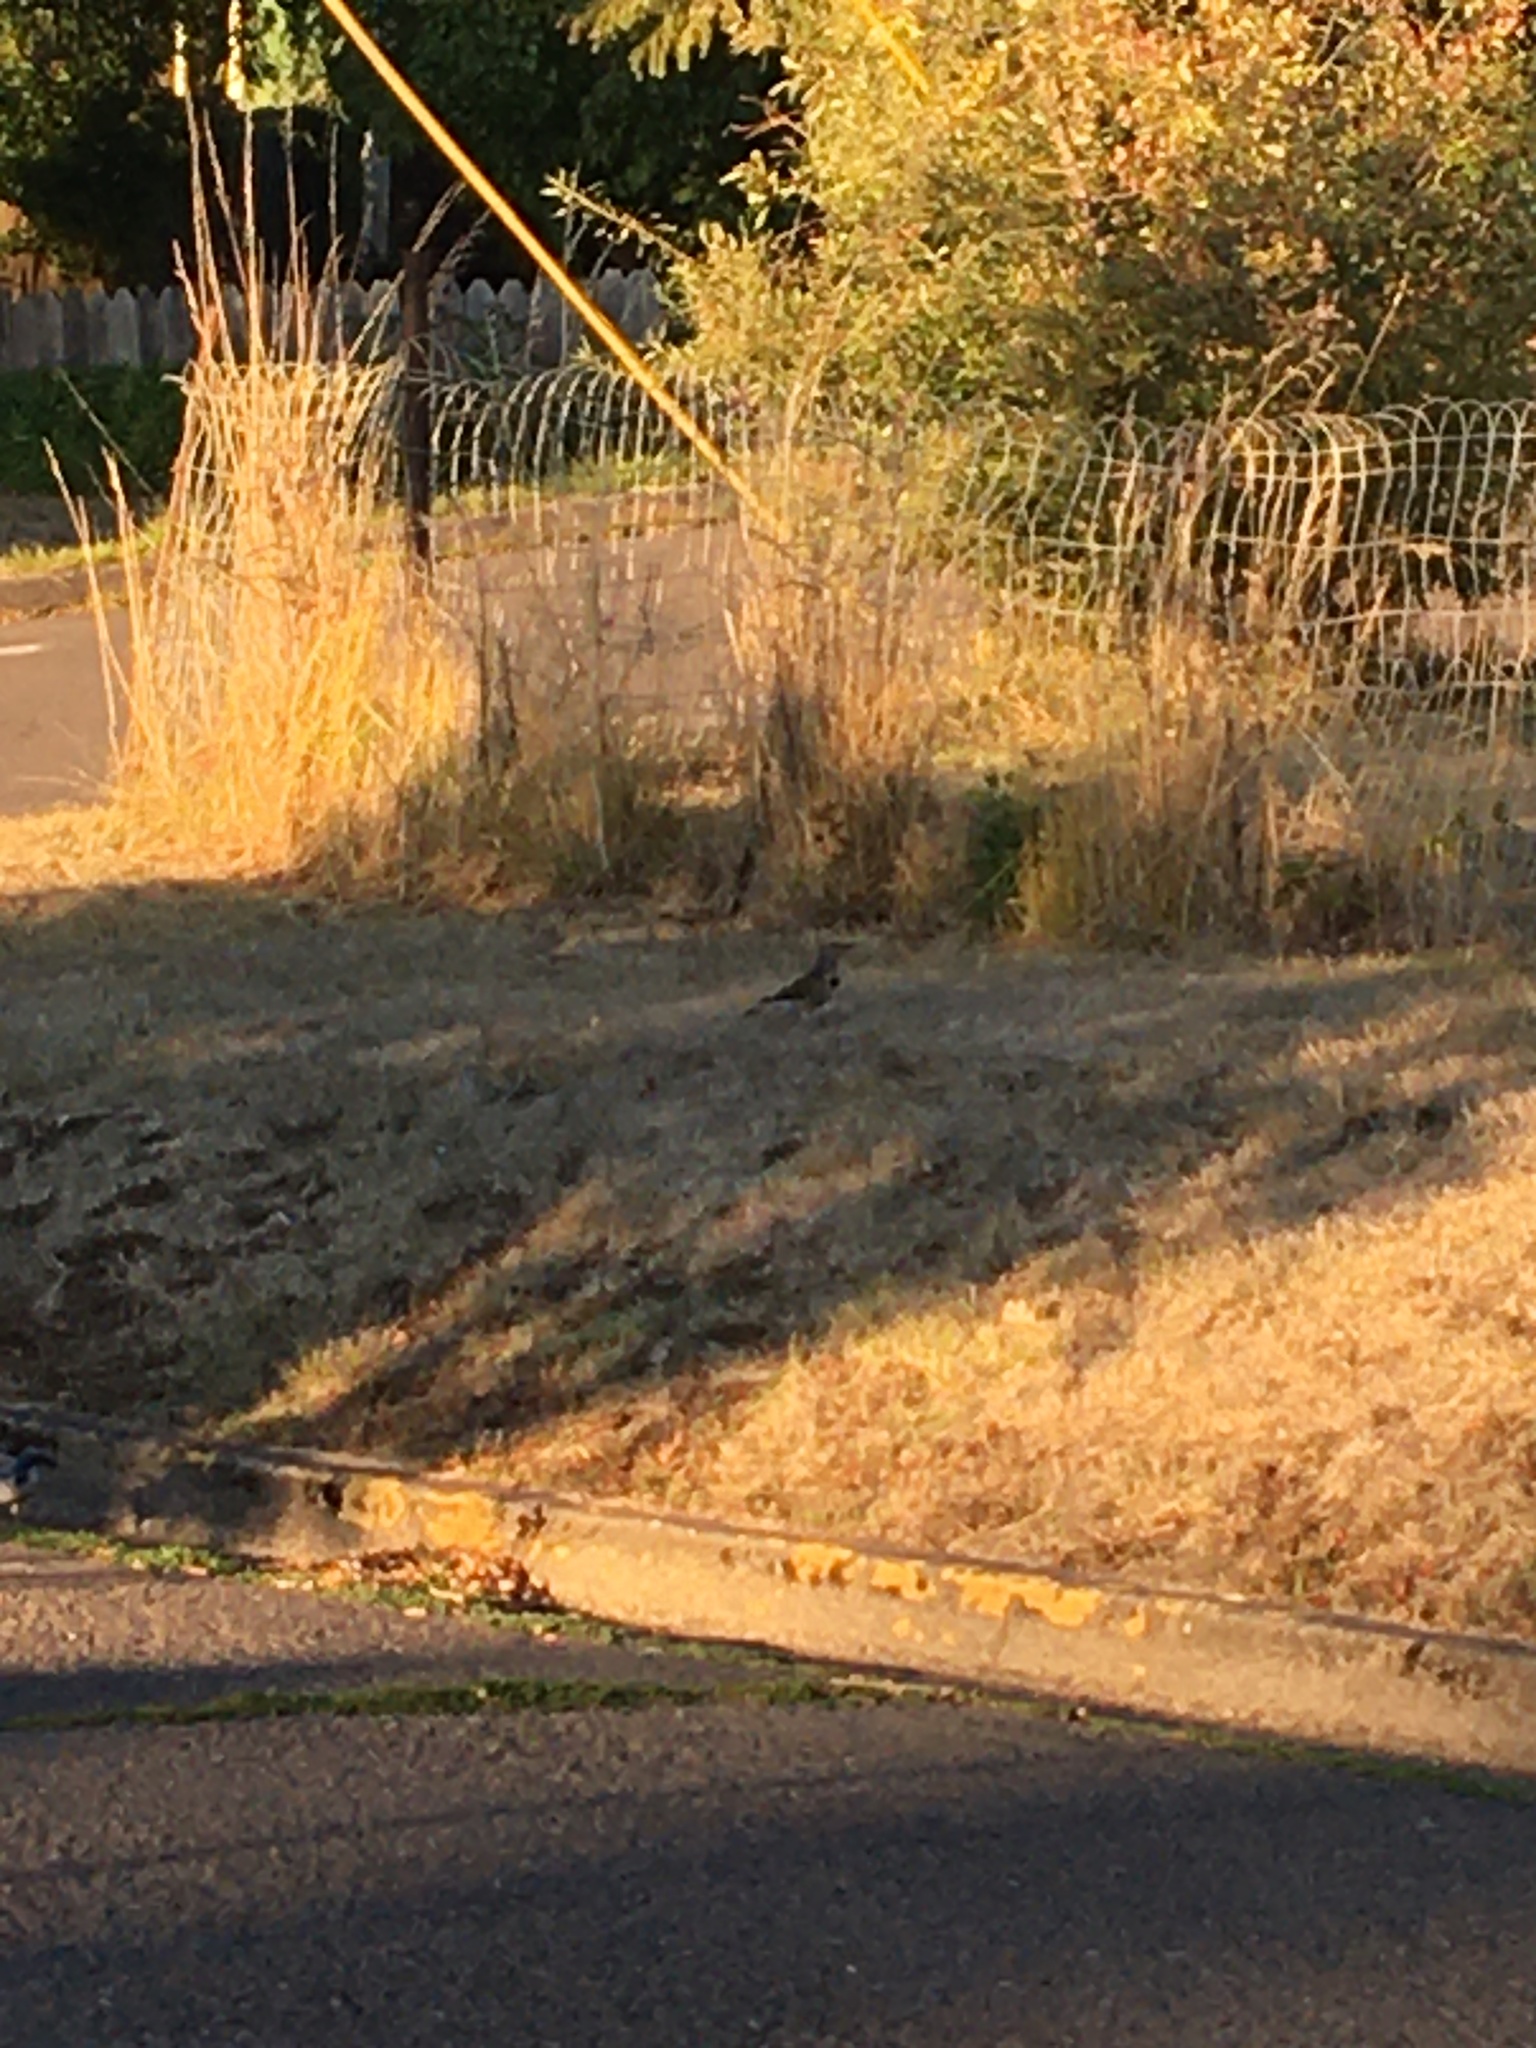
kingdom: Animalia
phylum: Chordata
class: Aves
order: Piciformes
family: Picidae
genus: Colaptes
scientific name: Colaptes auratus
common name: Northern flicker
